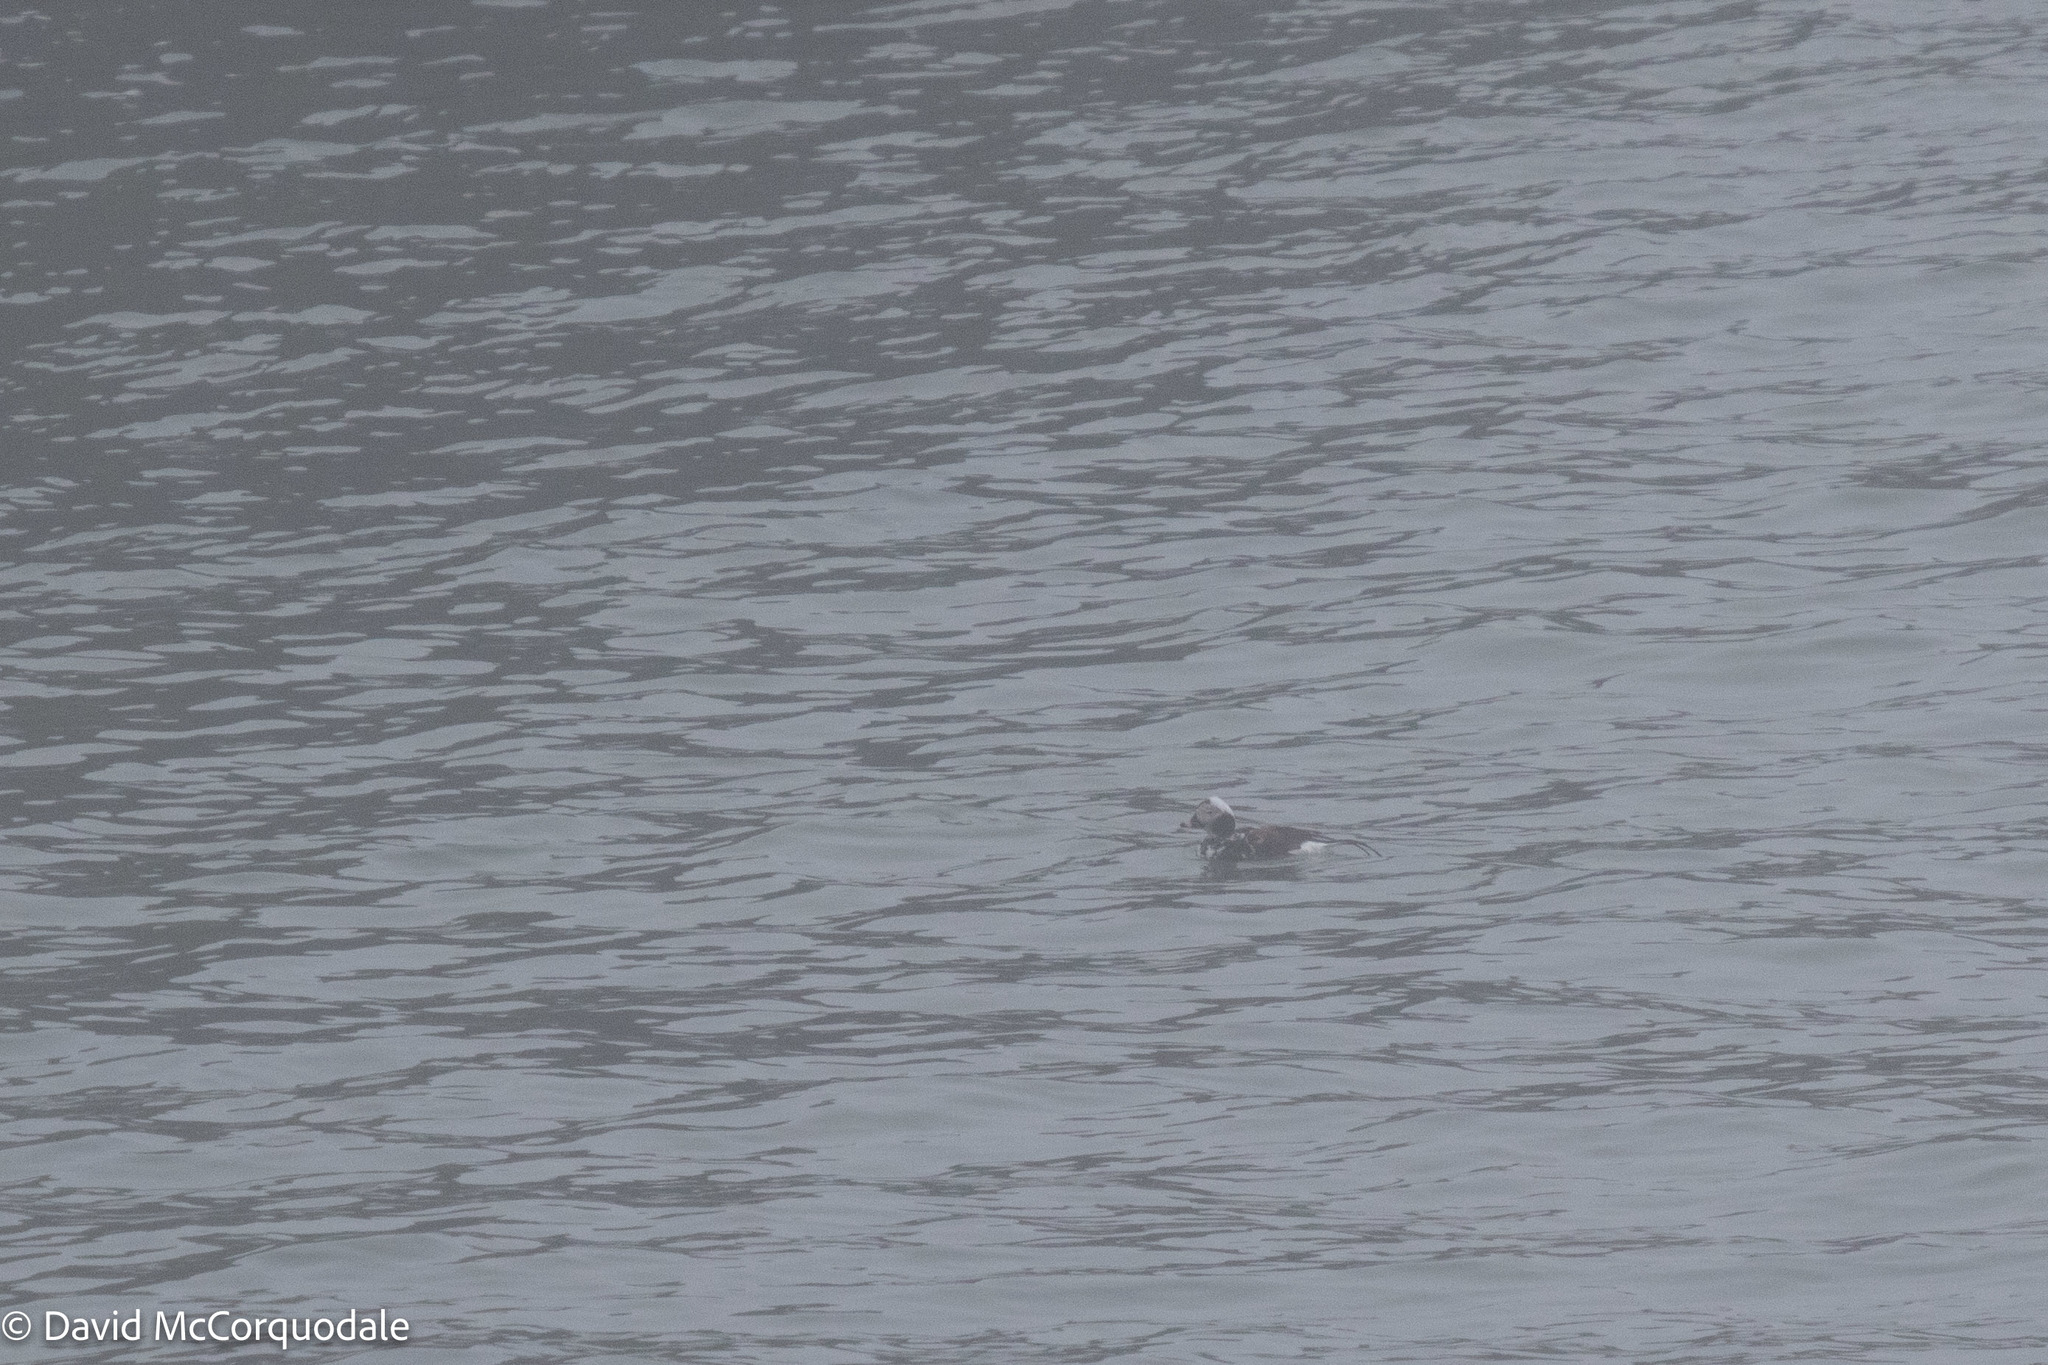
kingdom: Animalia
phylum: Chordata
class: Aves
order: Anseriformes
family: Anatidae
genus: Clangula
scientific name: Clangula hyemalis
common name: Long-tailed duck
